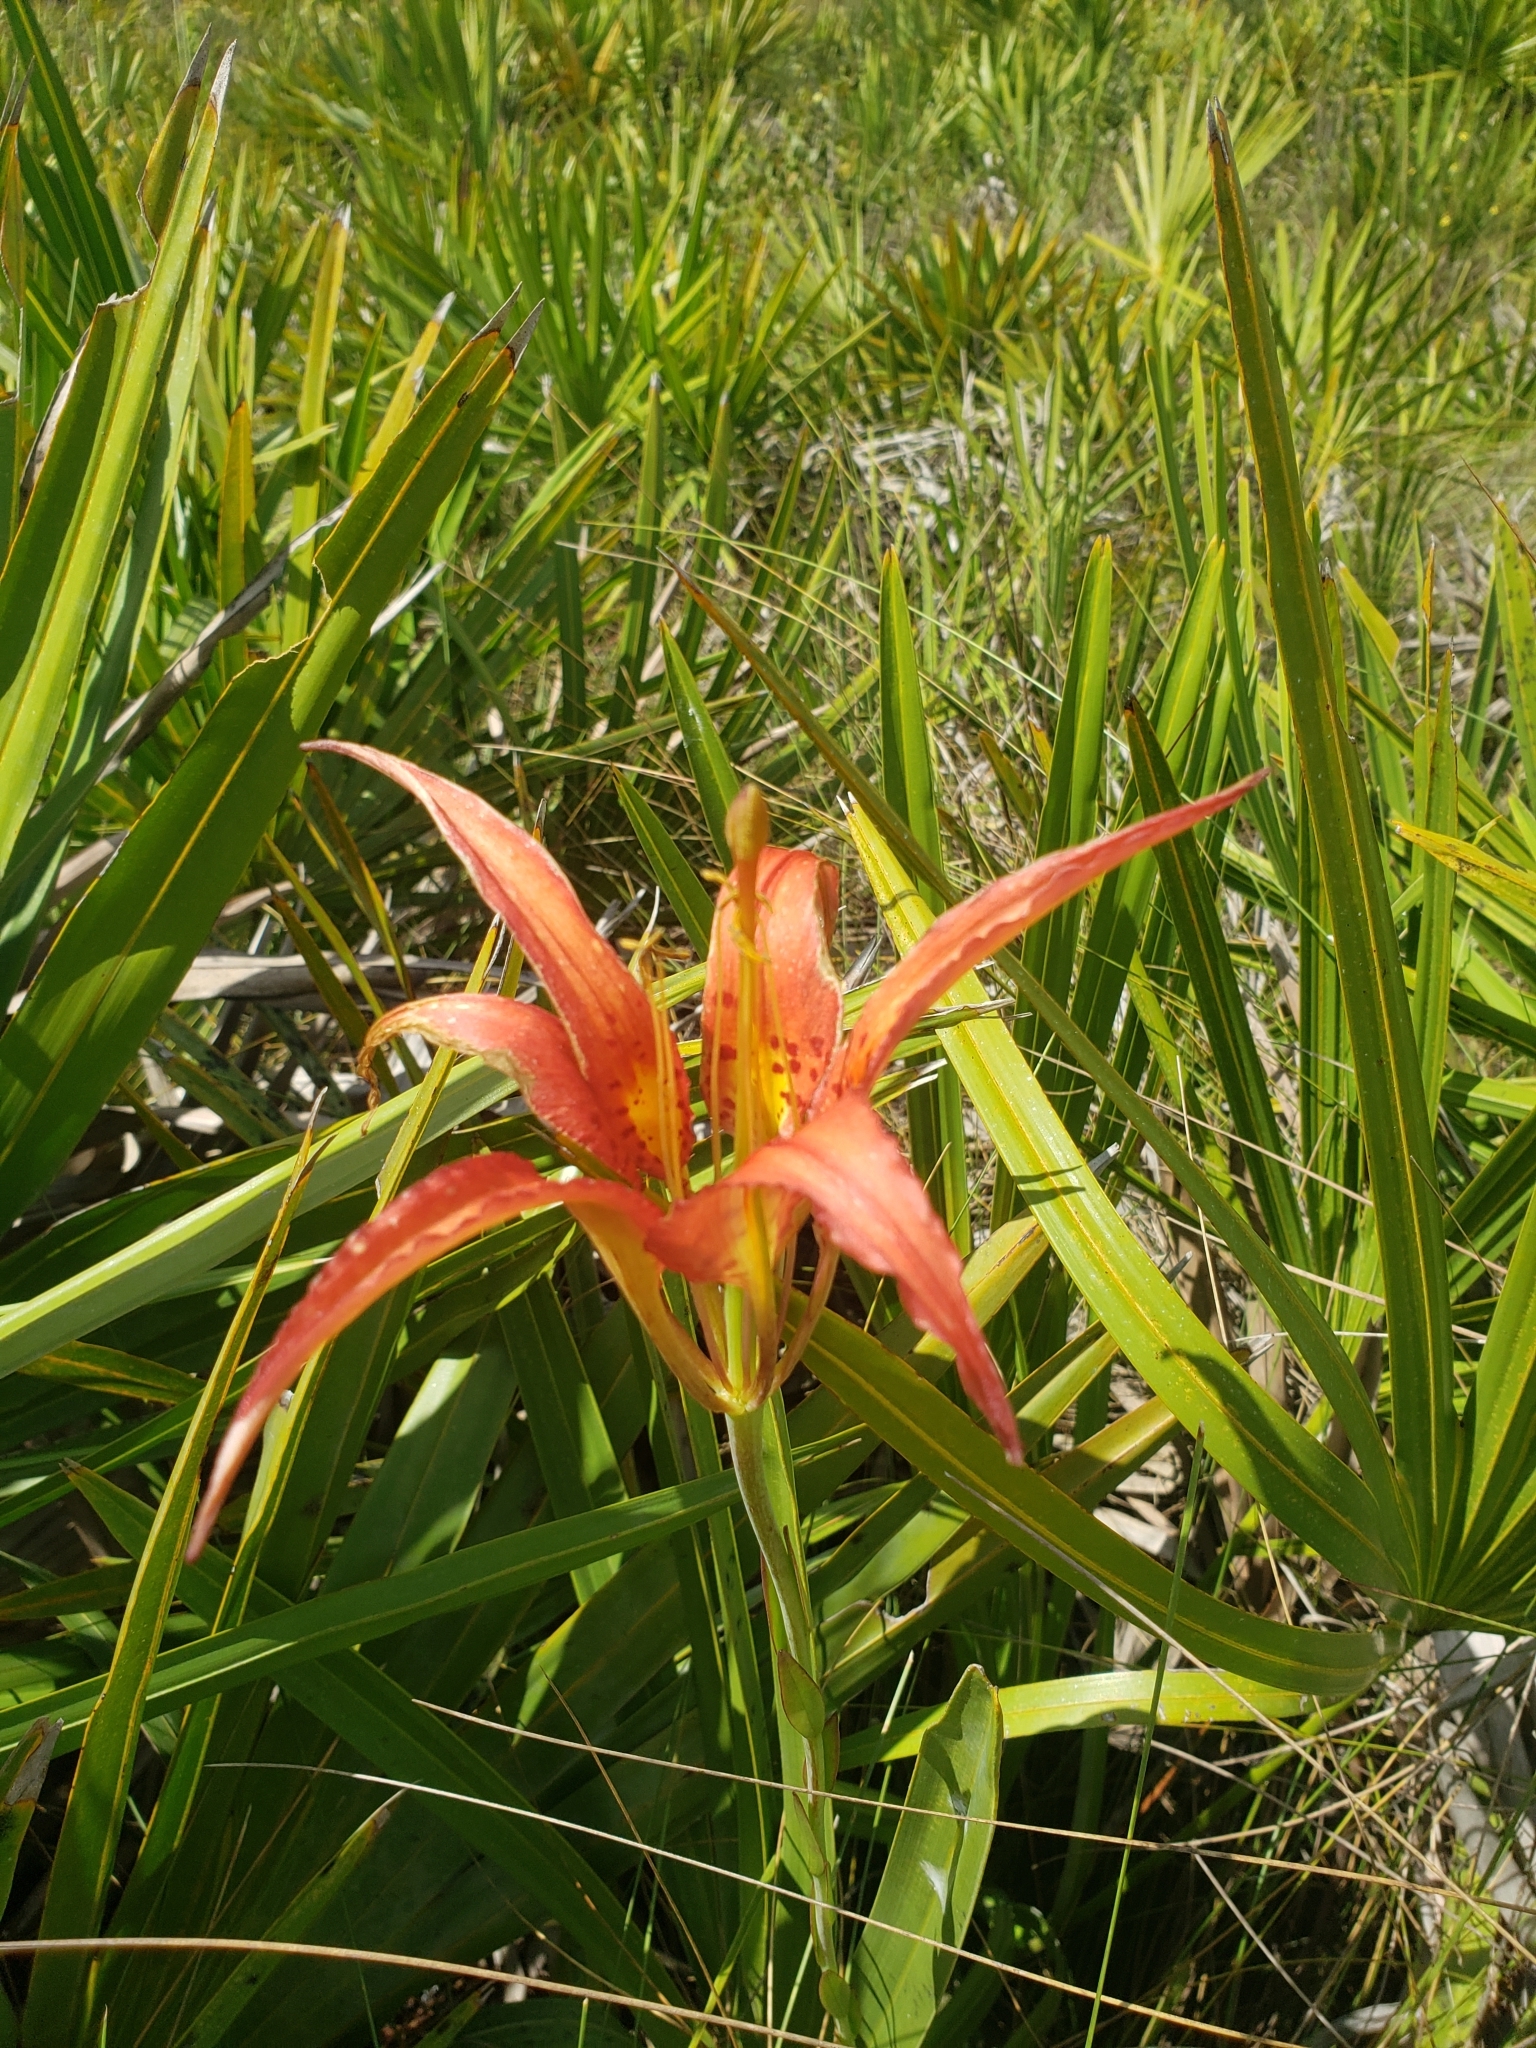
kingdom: Plantae
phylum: Tracheophyta
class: Liliopsida
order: Liliales
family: Liliaceae
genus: Lilium
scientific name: Lilium catesbaei
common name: Catesby's lily
